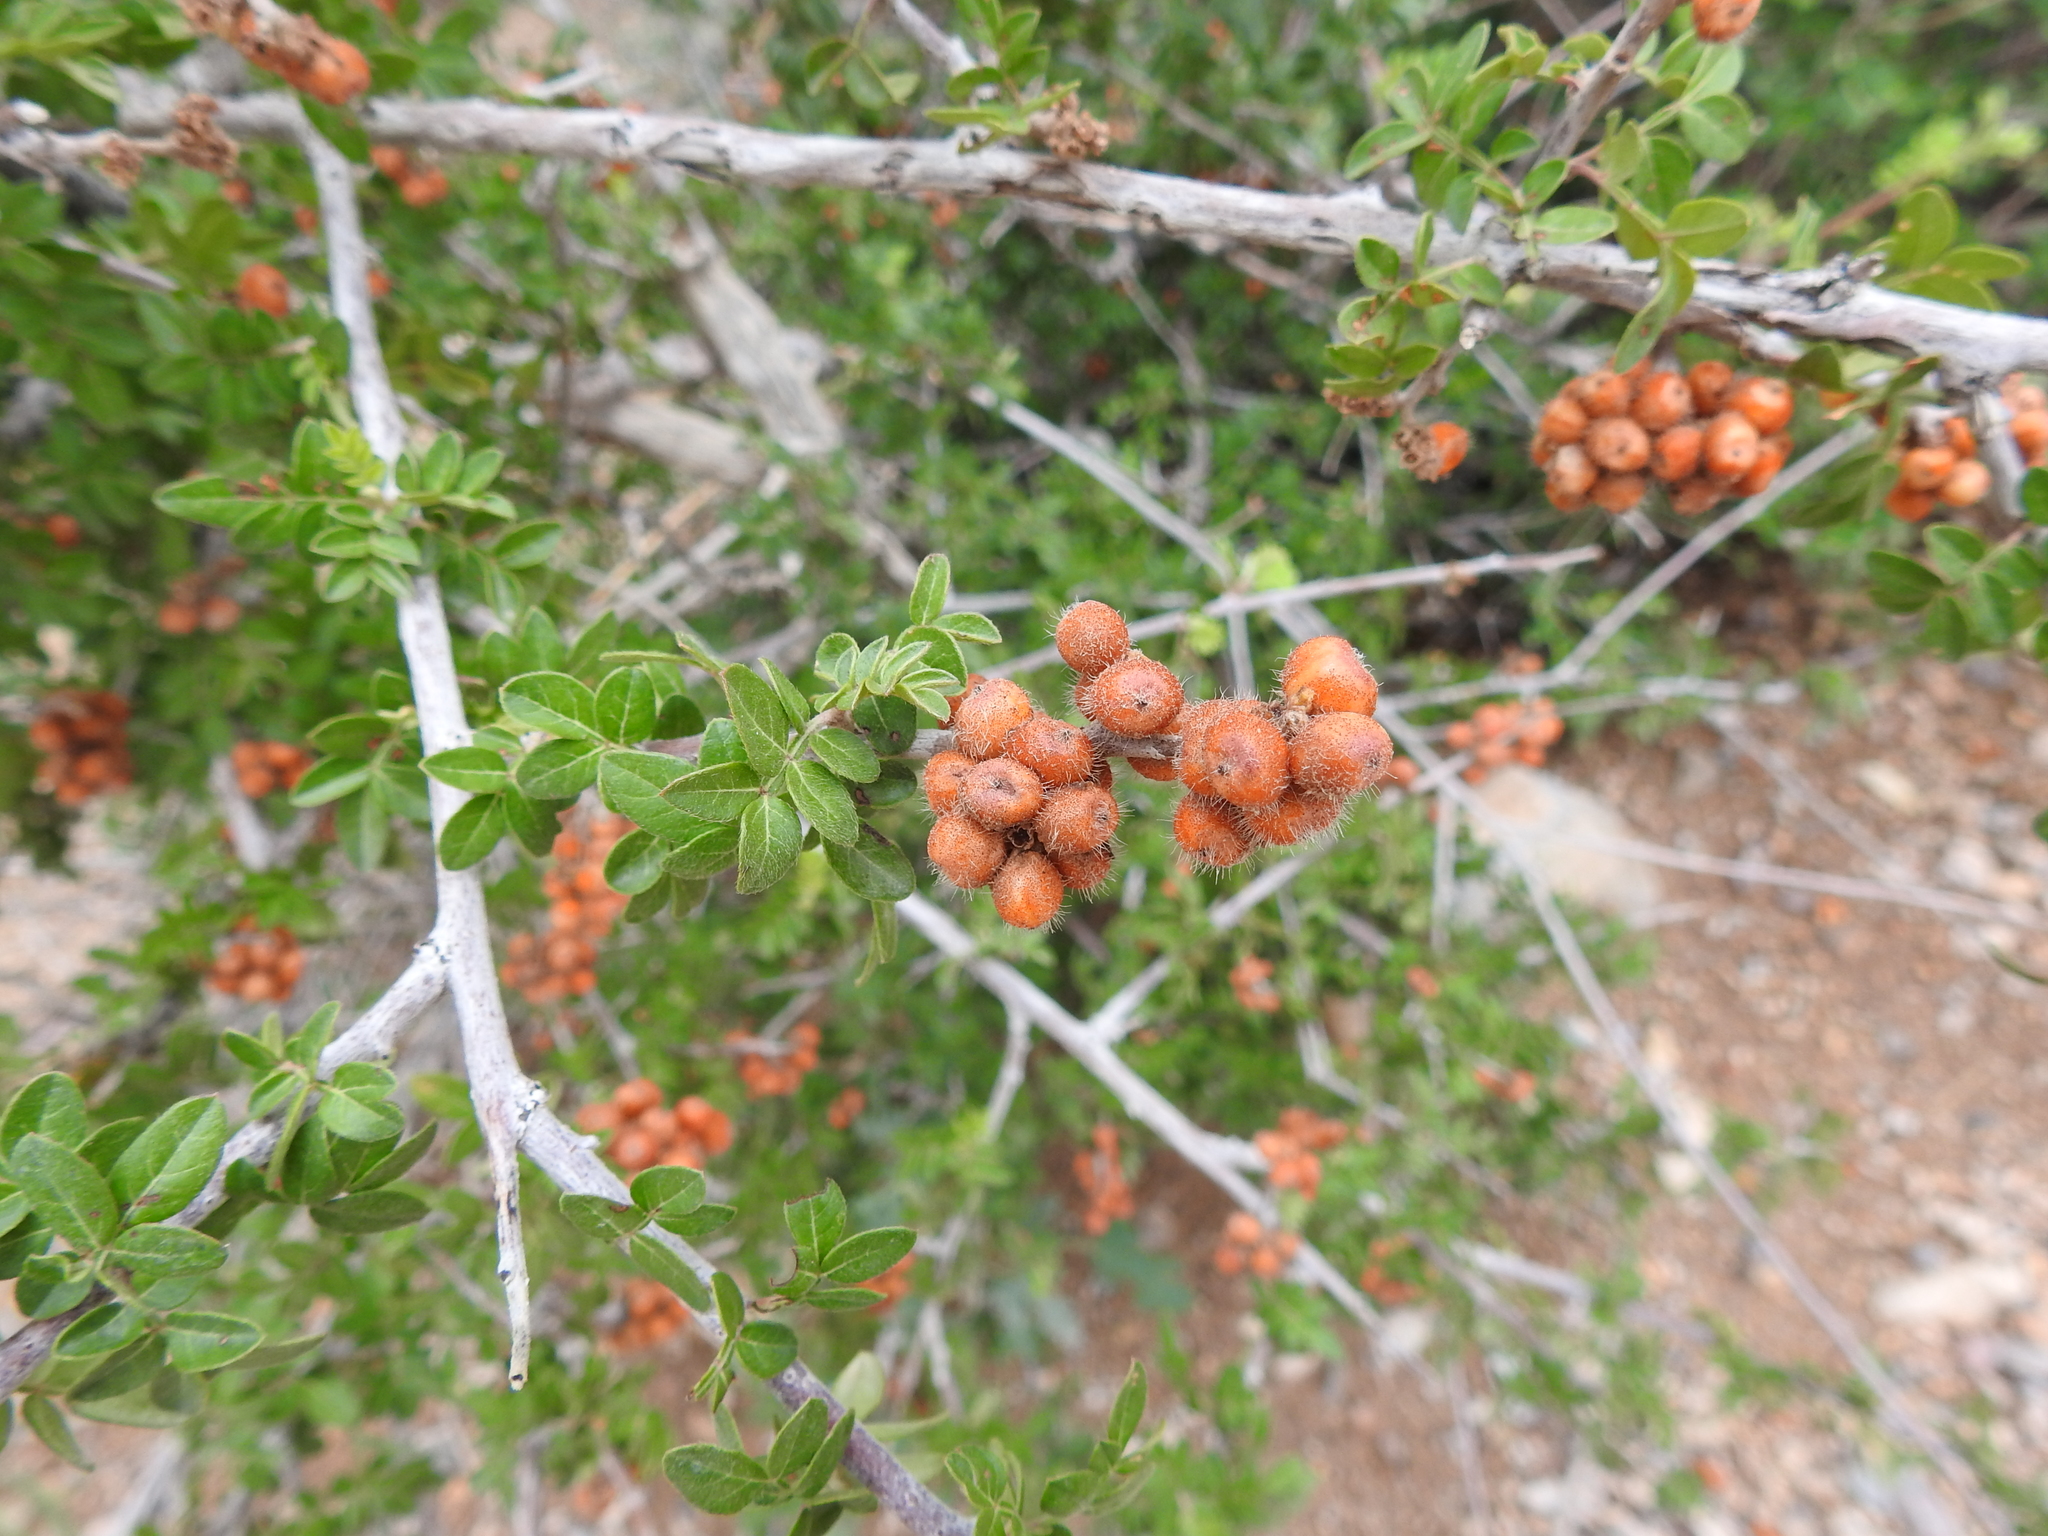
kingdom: Plantae
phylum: Tracheophyta
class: Magnoliopsida
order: Sapindales
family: Anacardiaceae
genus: Rhus
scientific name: Rhus microphylla
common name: Desert sumac
